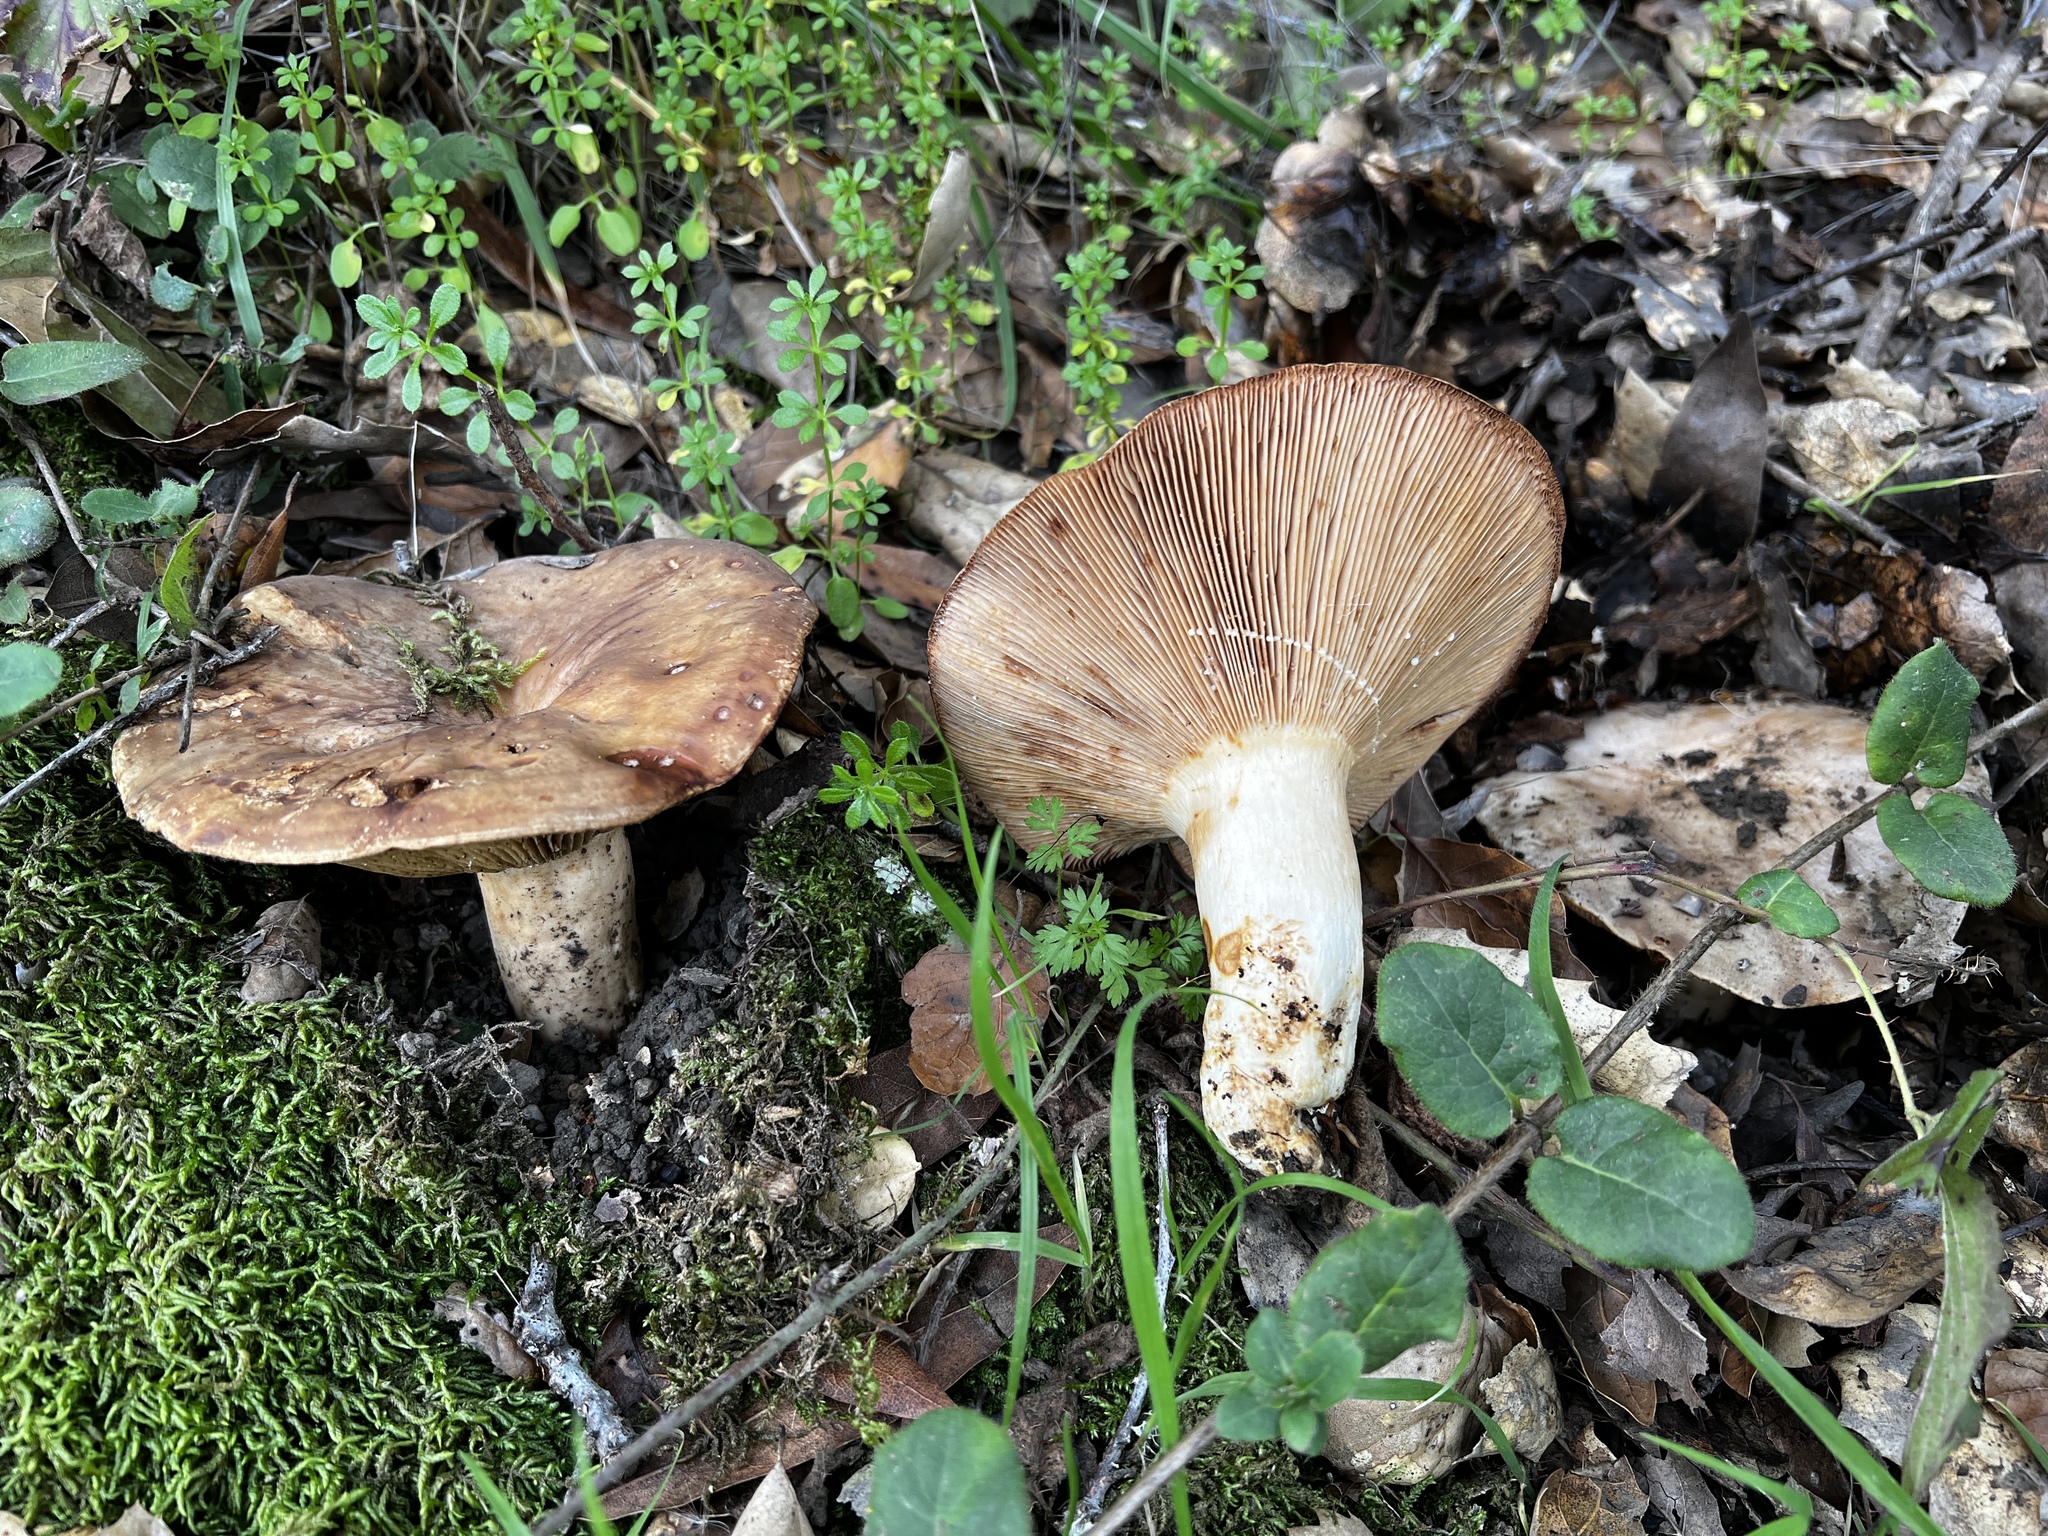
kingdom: Fungi
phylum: Basidiomycota
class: Agaricomycetes
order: Russulales
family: Russulaceae
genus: Lactarius
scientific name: Lactarius argillaceifolius
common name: Clay-gilled milkcap
